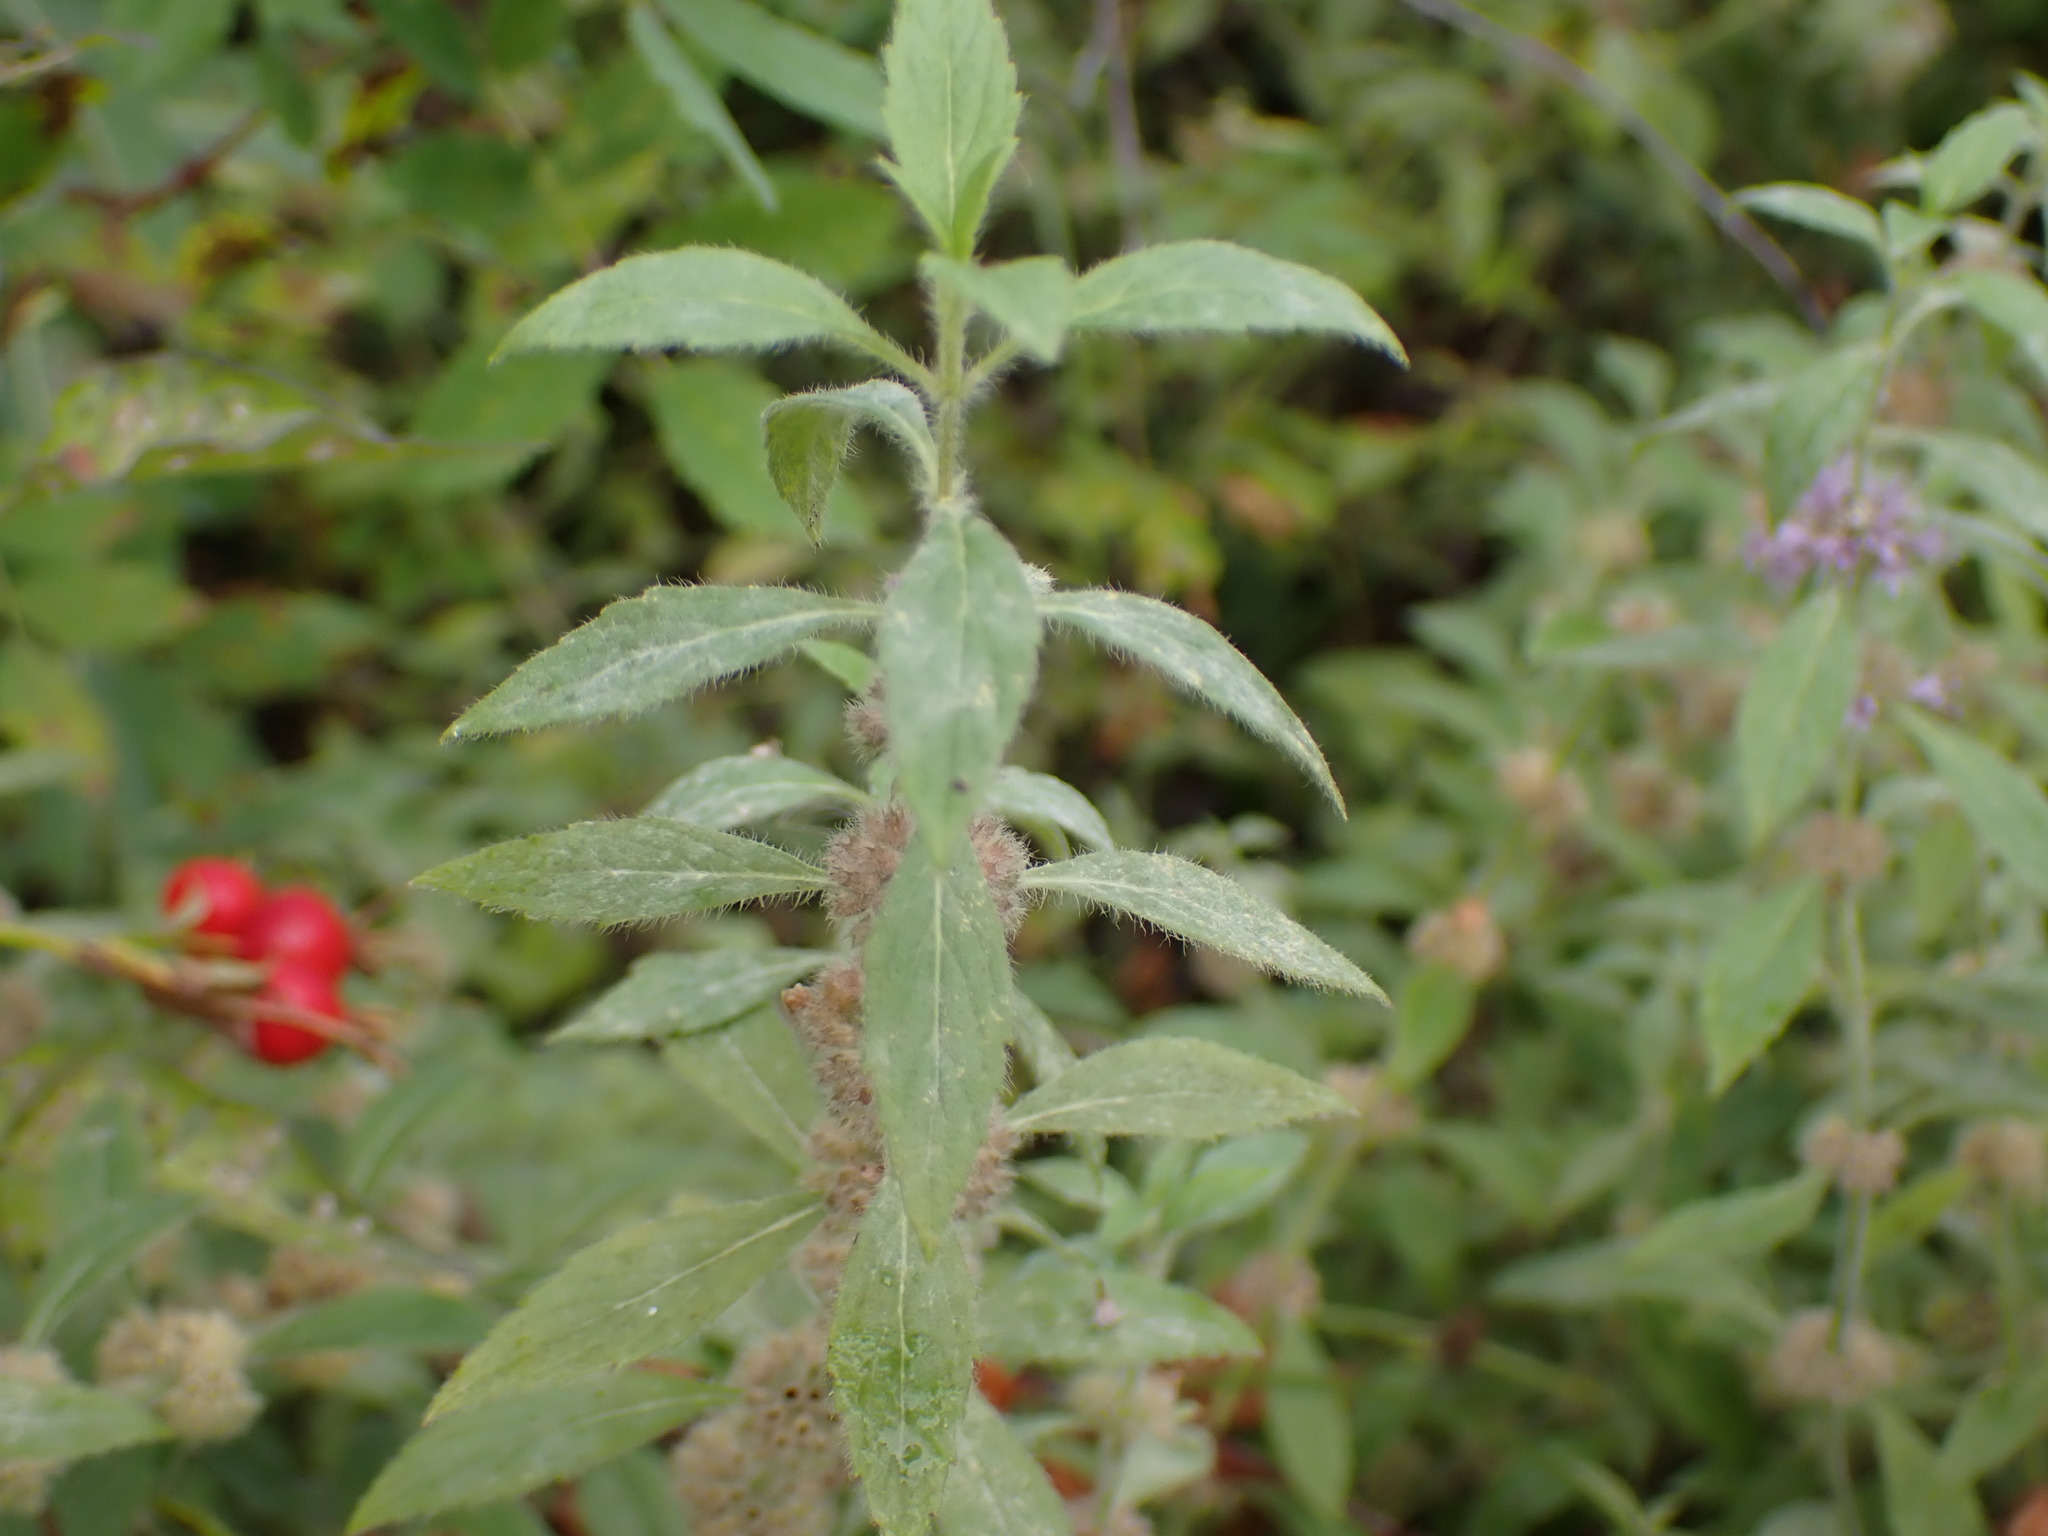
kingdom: Plantae
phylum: Tracheophyta
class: Magnoliopsida
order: Lamiales
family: Lamiaceae
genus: Mentha
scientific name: Mentha canadensis
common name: American corn mint
